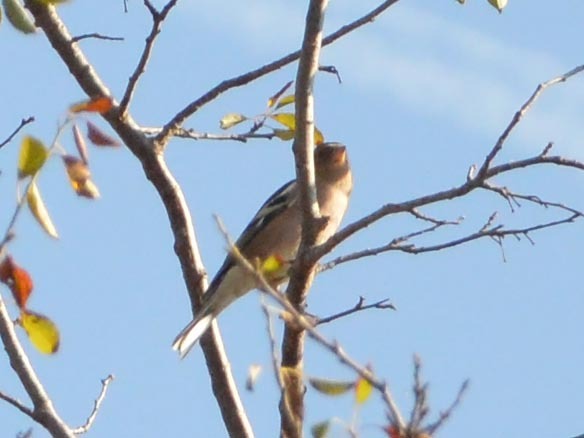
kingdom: Animalia
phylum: Chordata
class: Aves
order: Passeriformes
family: Fringillidae
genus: Fringilla
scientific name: Fringilla coelebs
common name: Common chaffinch
